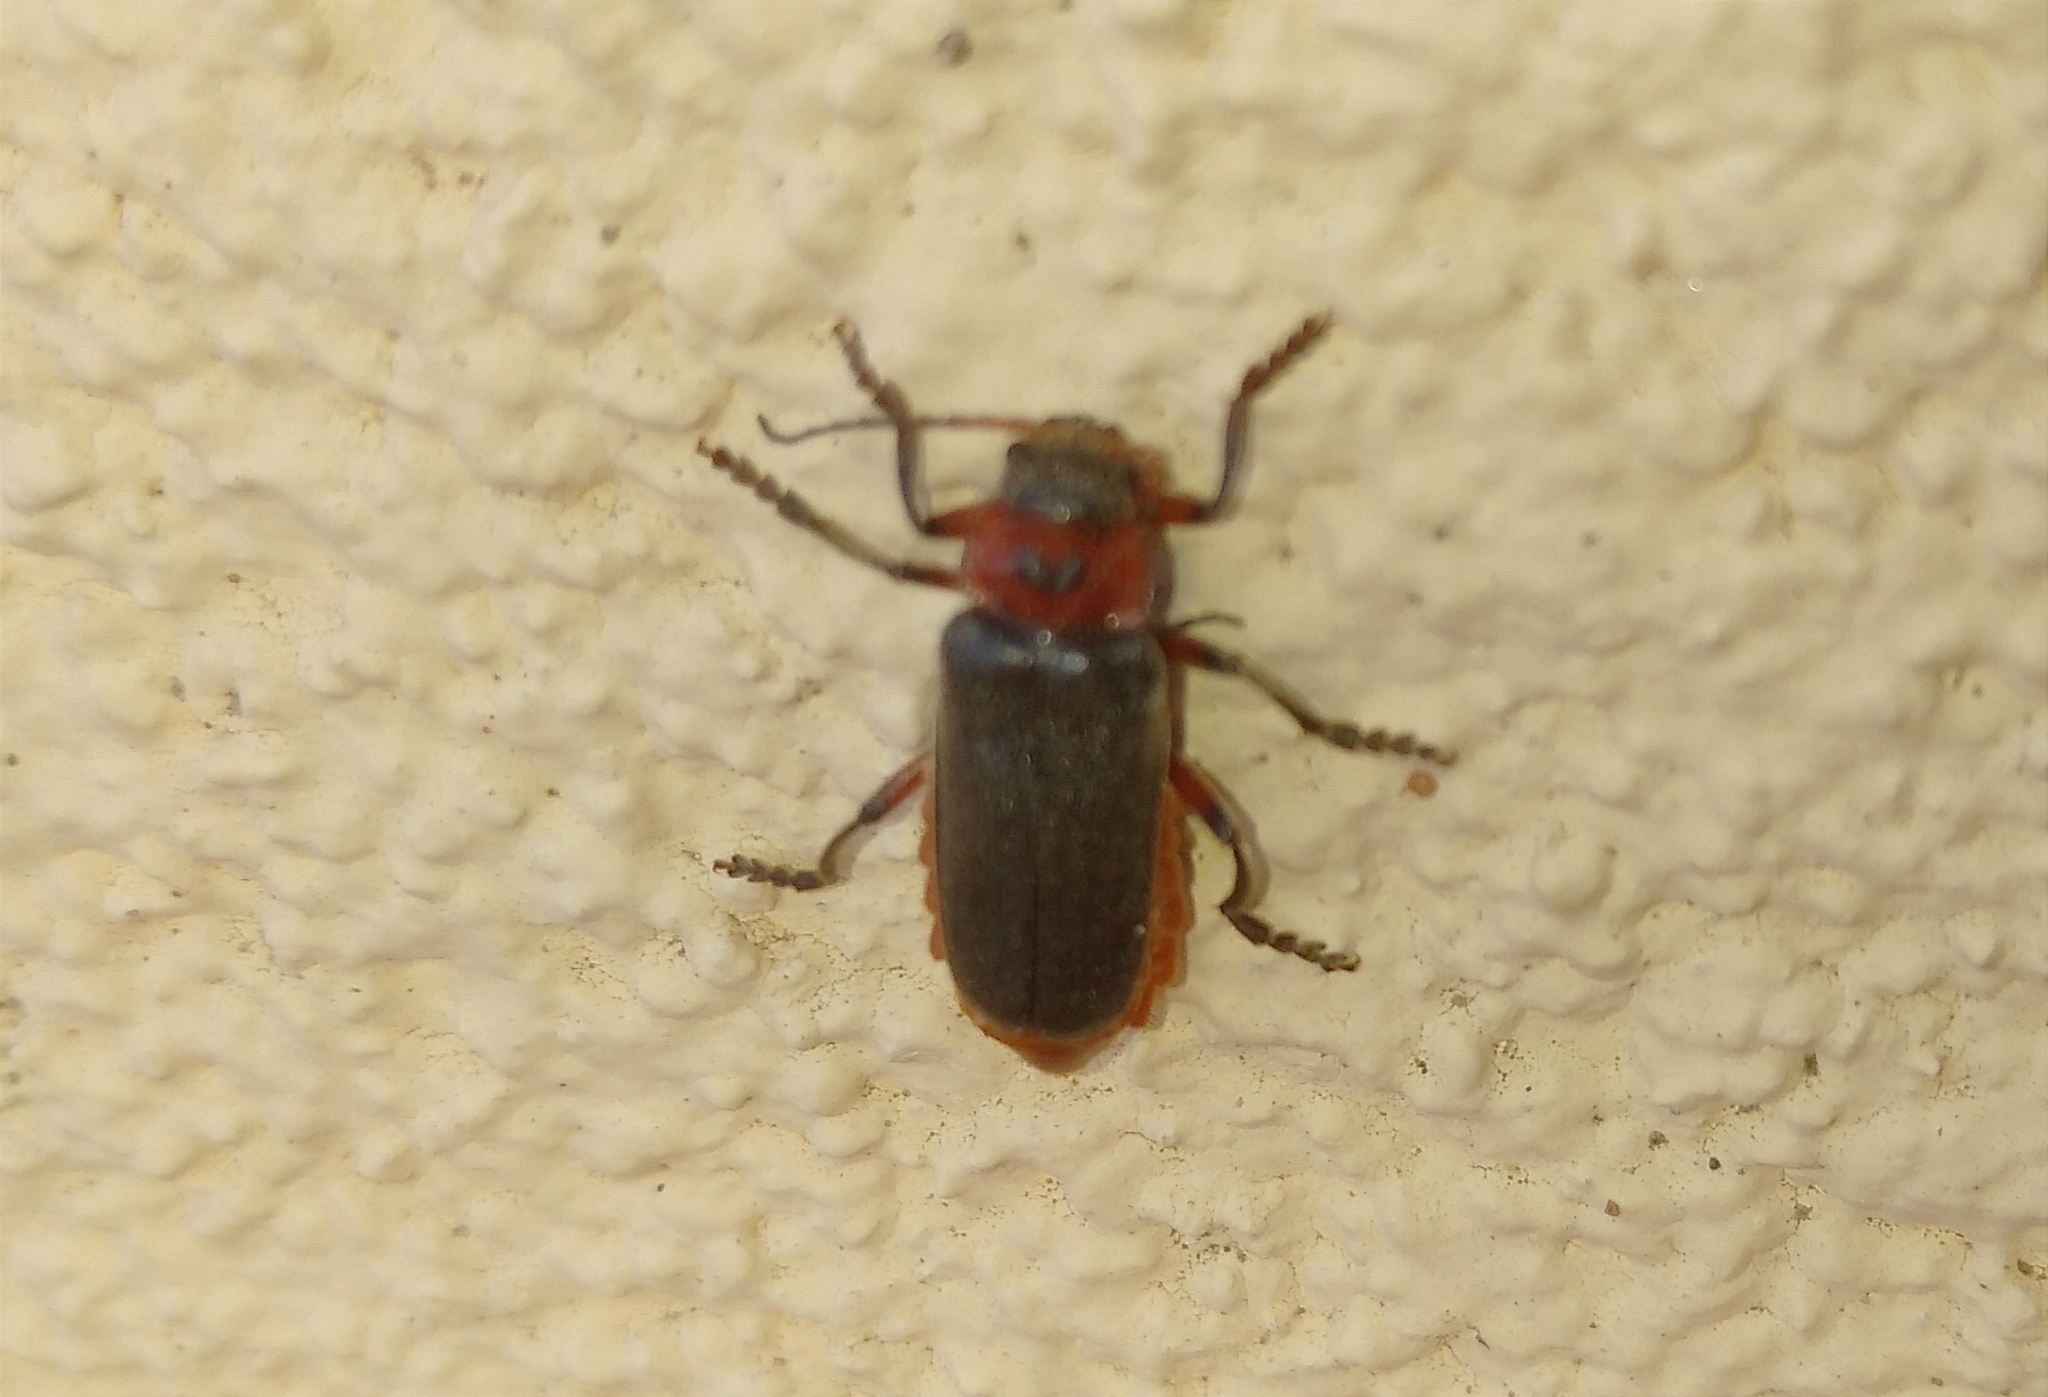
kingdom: Animalia
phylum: Arthropoda
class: Insecta
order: Coleoptera
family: Cantharidae
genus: Cantharis
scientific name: Cantharis rustica
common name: Soldier beetle
